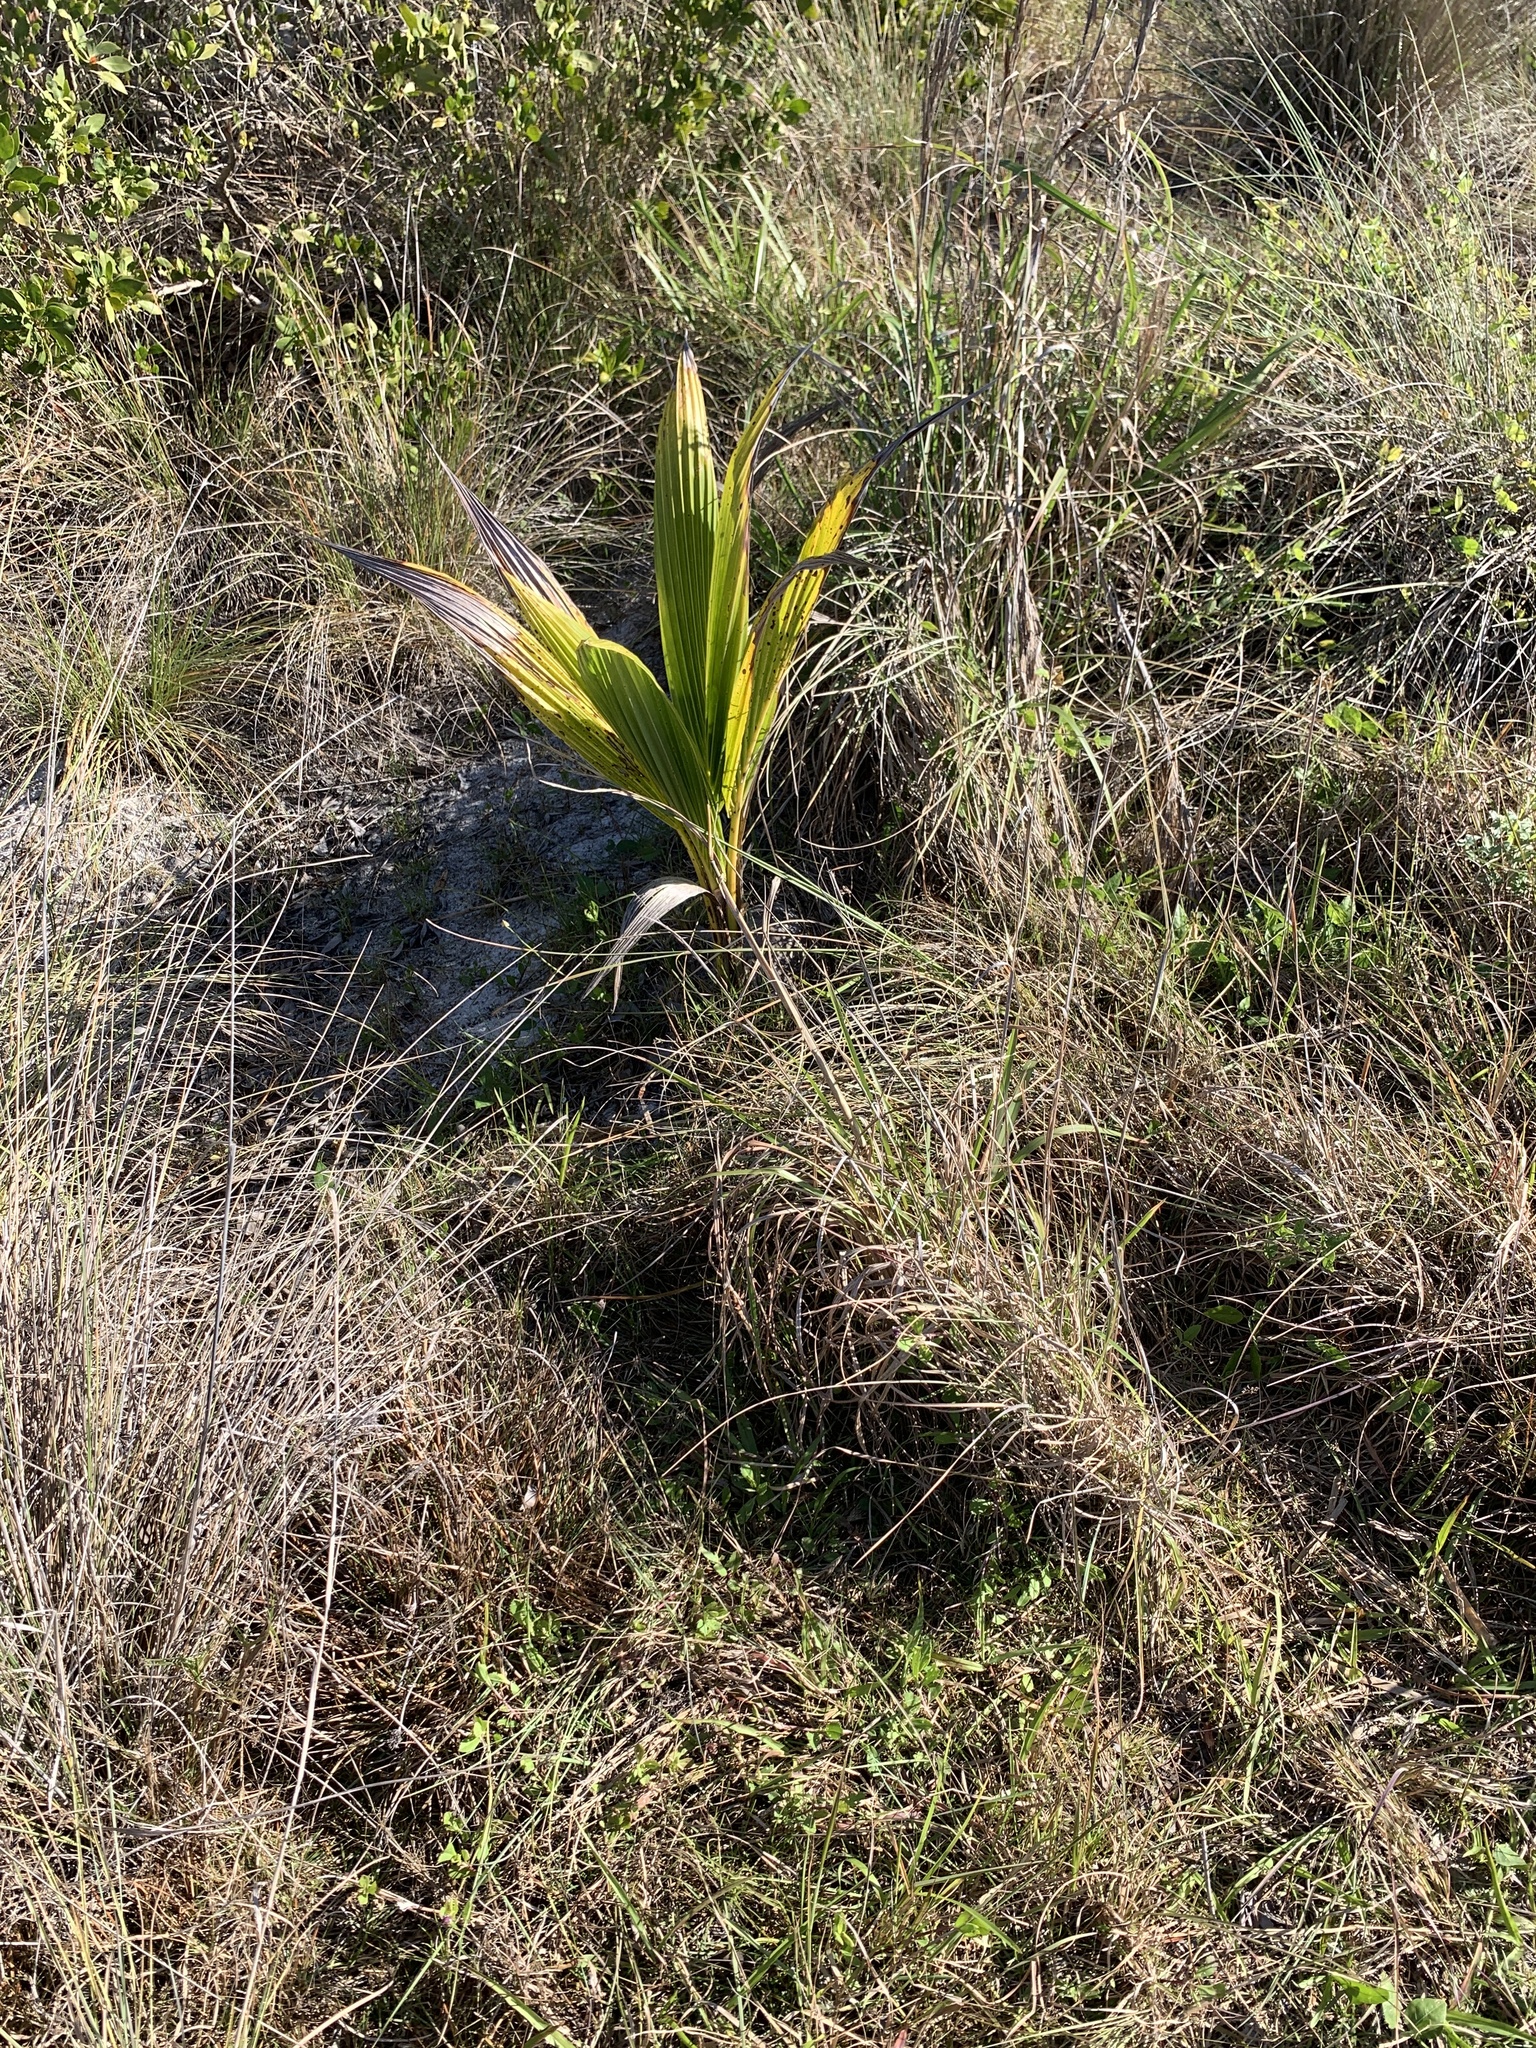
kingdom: Plantae
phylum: Tracheophyta
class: Liliopsida
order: Arecales
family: Arecaceae
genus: Cocos
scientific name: Cocos nucifera
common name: Coconut palm
